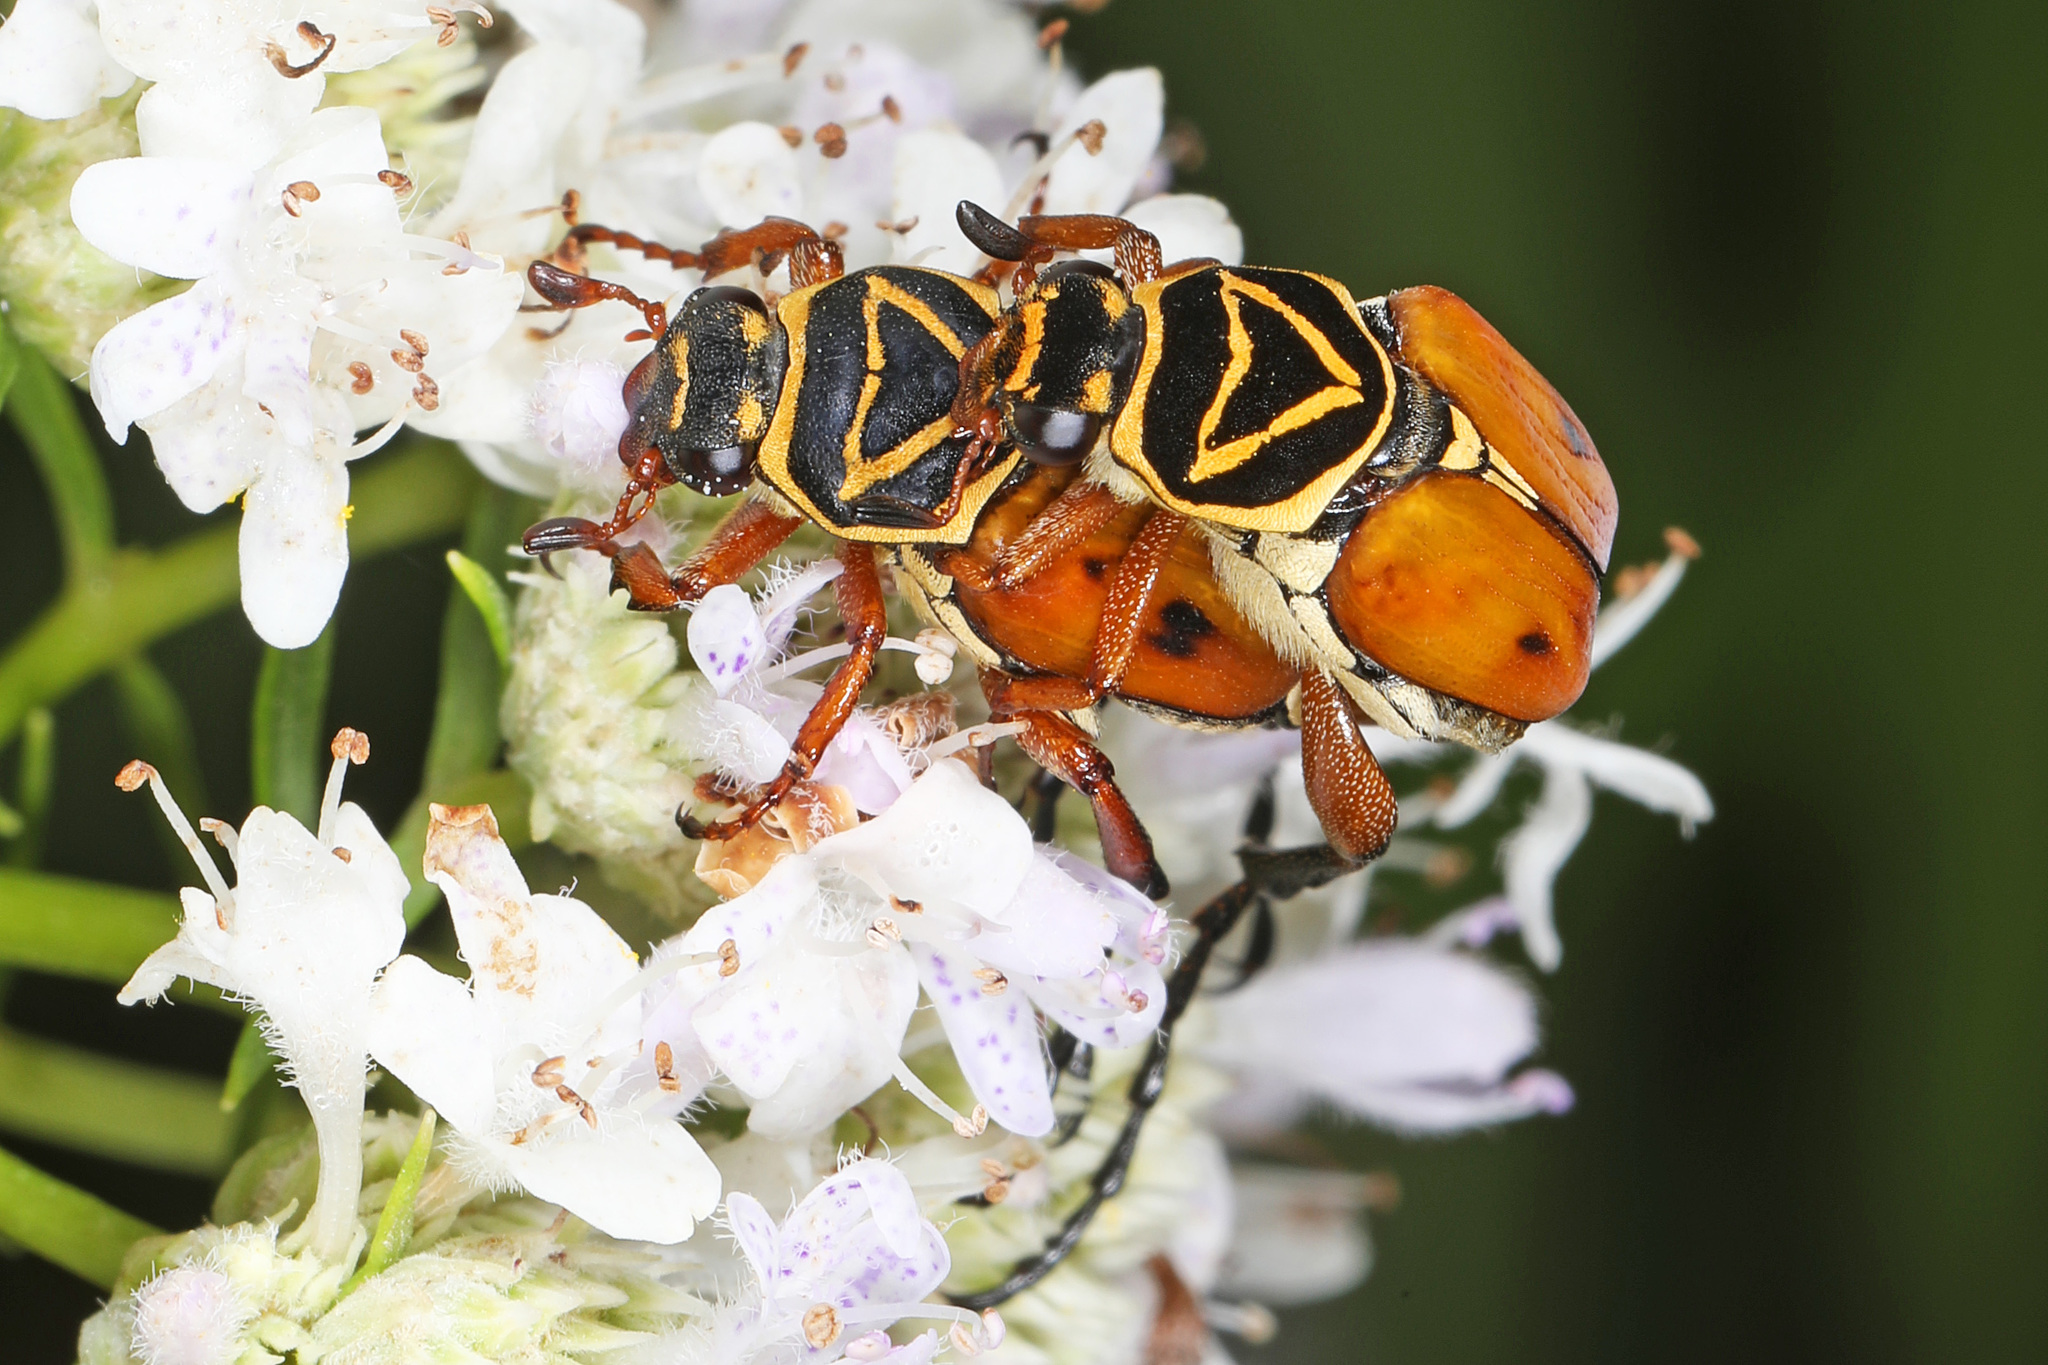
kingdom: Animalia
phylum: Arthropoda
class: Insecta
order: Coleoptera
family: Scarabaeidae
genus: Trigonopeltastes
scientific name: Trigonopeltastes delta
